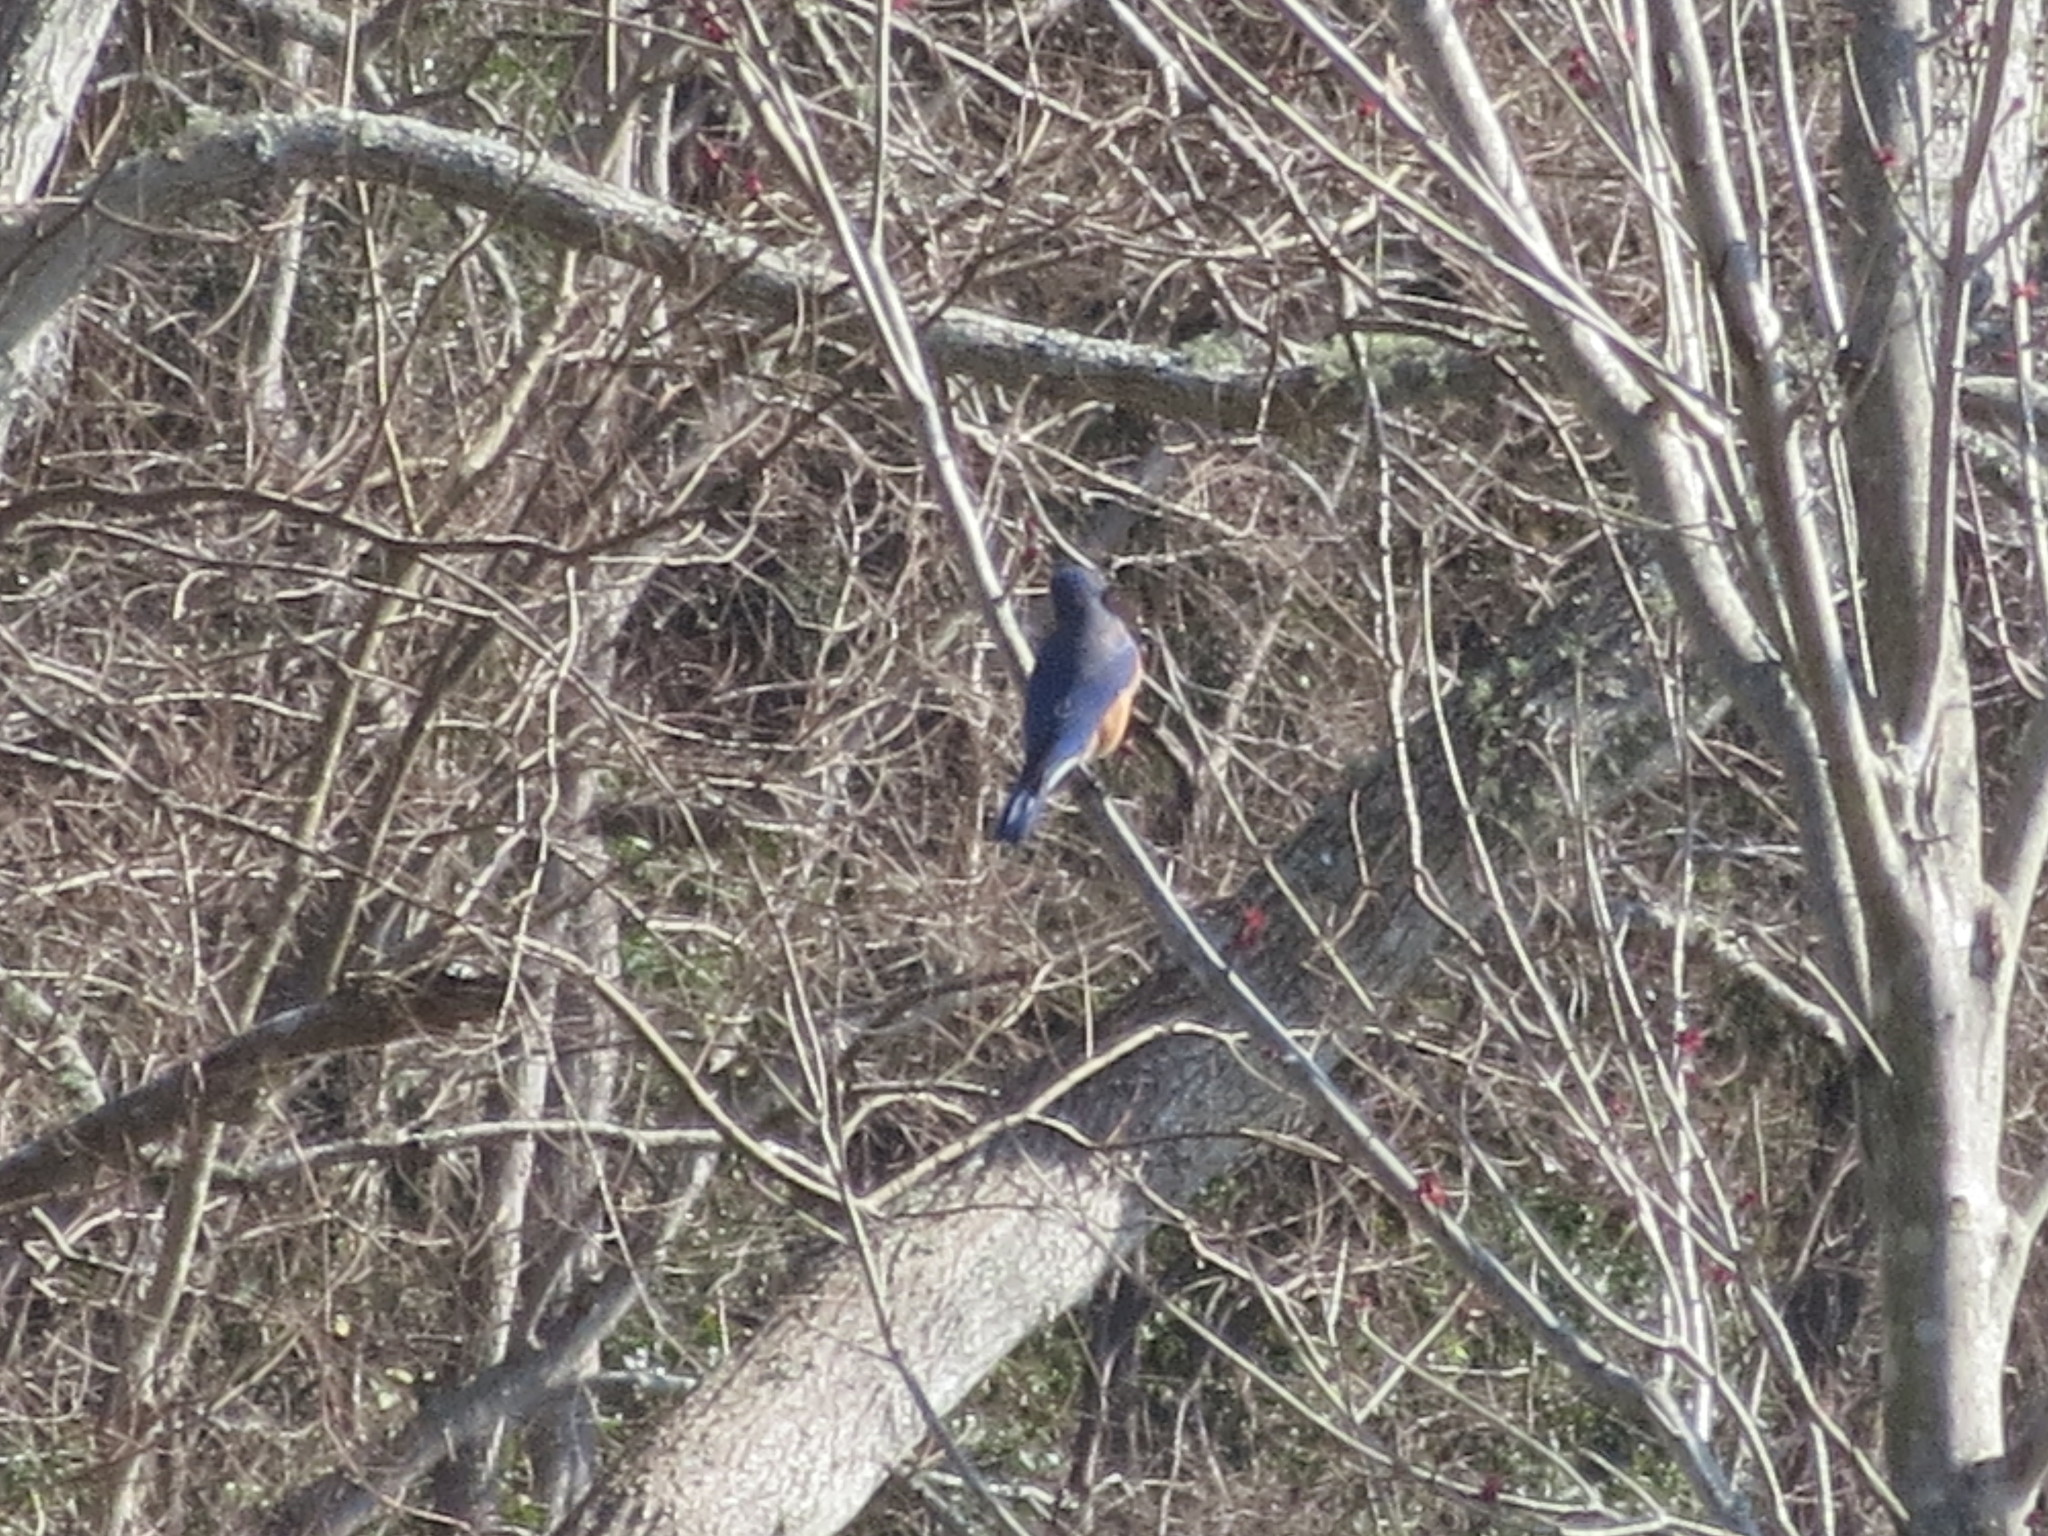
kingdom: Animalia
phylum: Chordata
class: Aves
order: Passeriformes
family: Turdidae
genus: Sialia
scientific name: Sialia sialis
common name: Eastern bluebird
